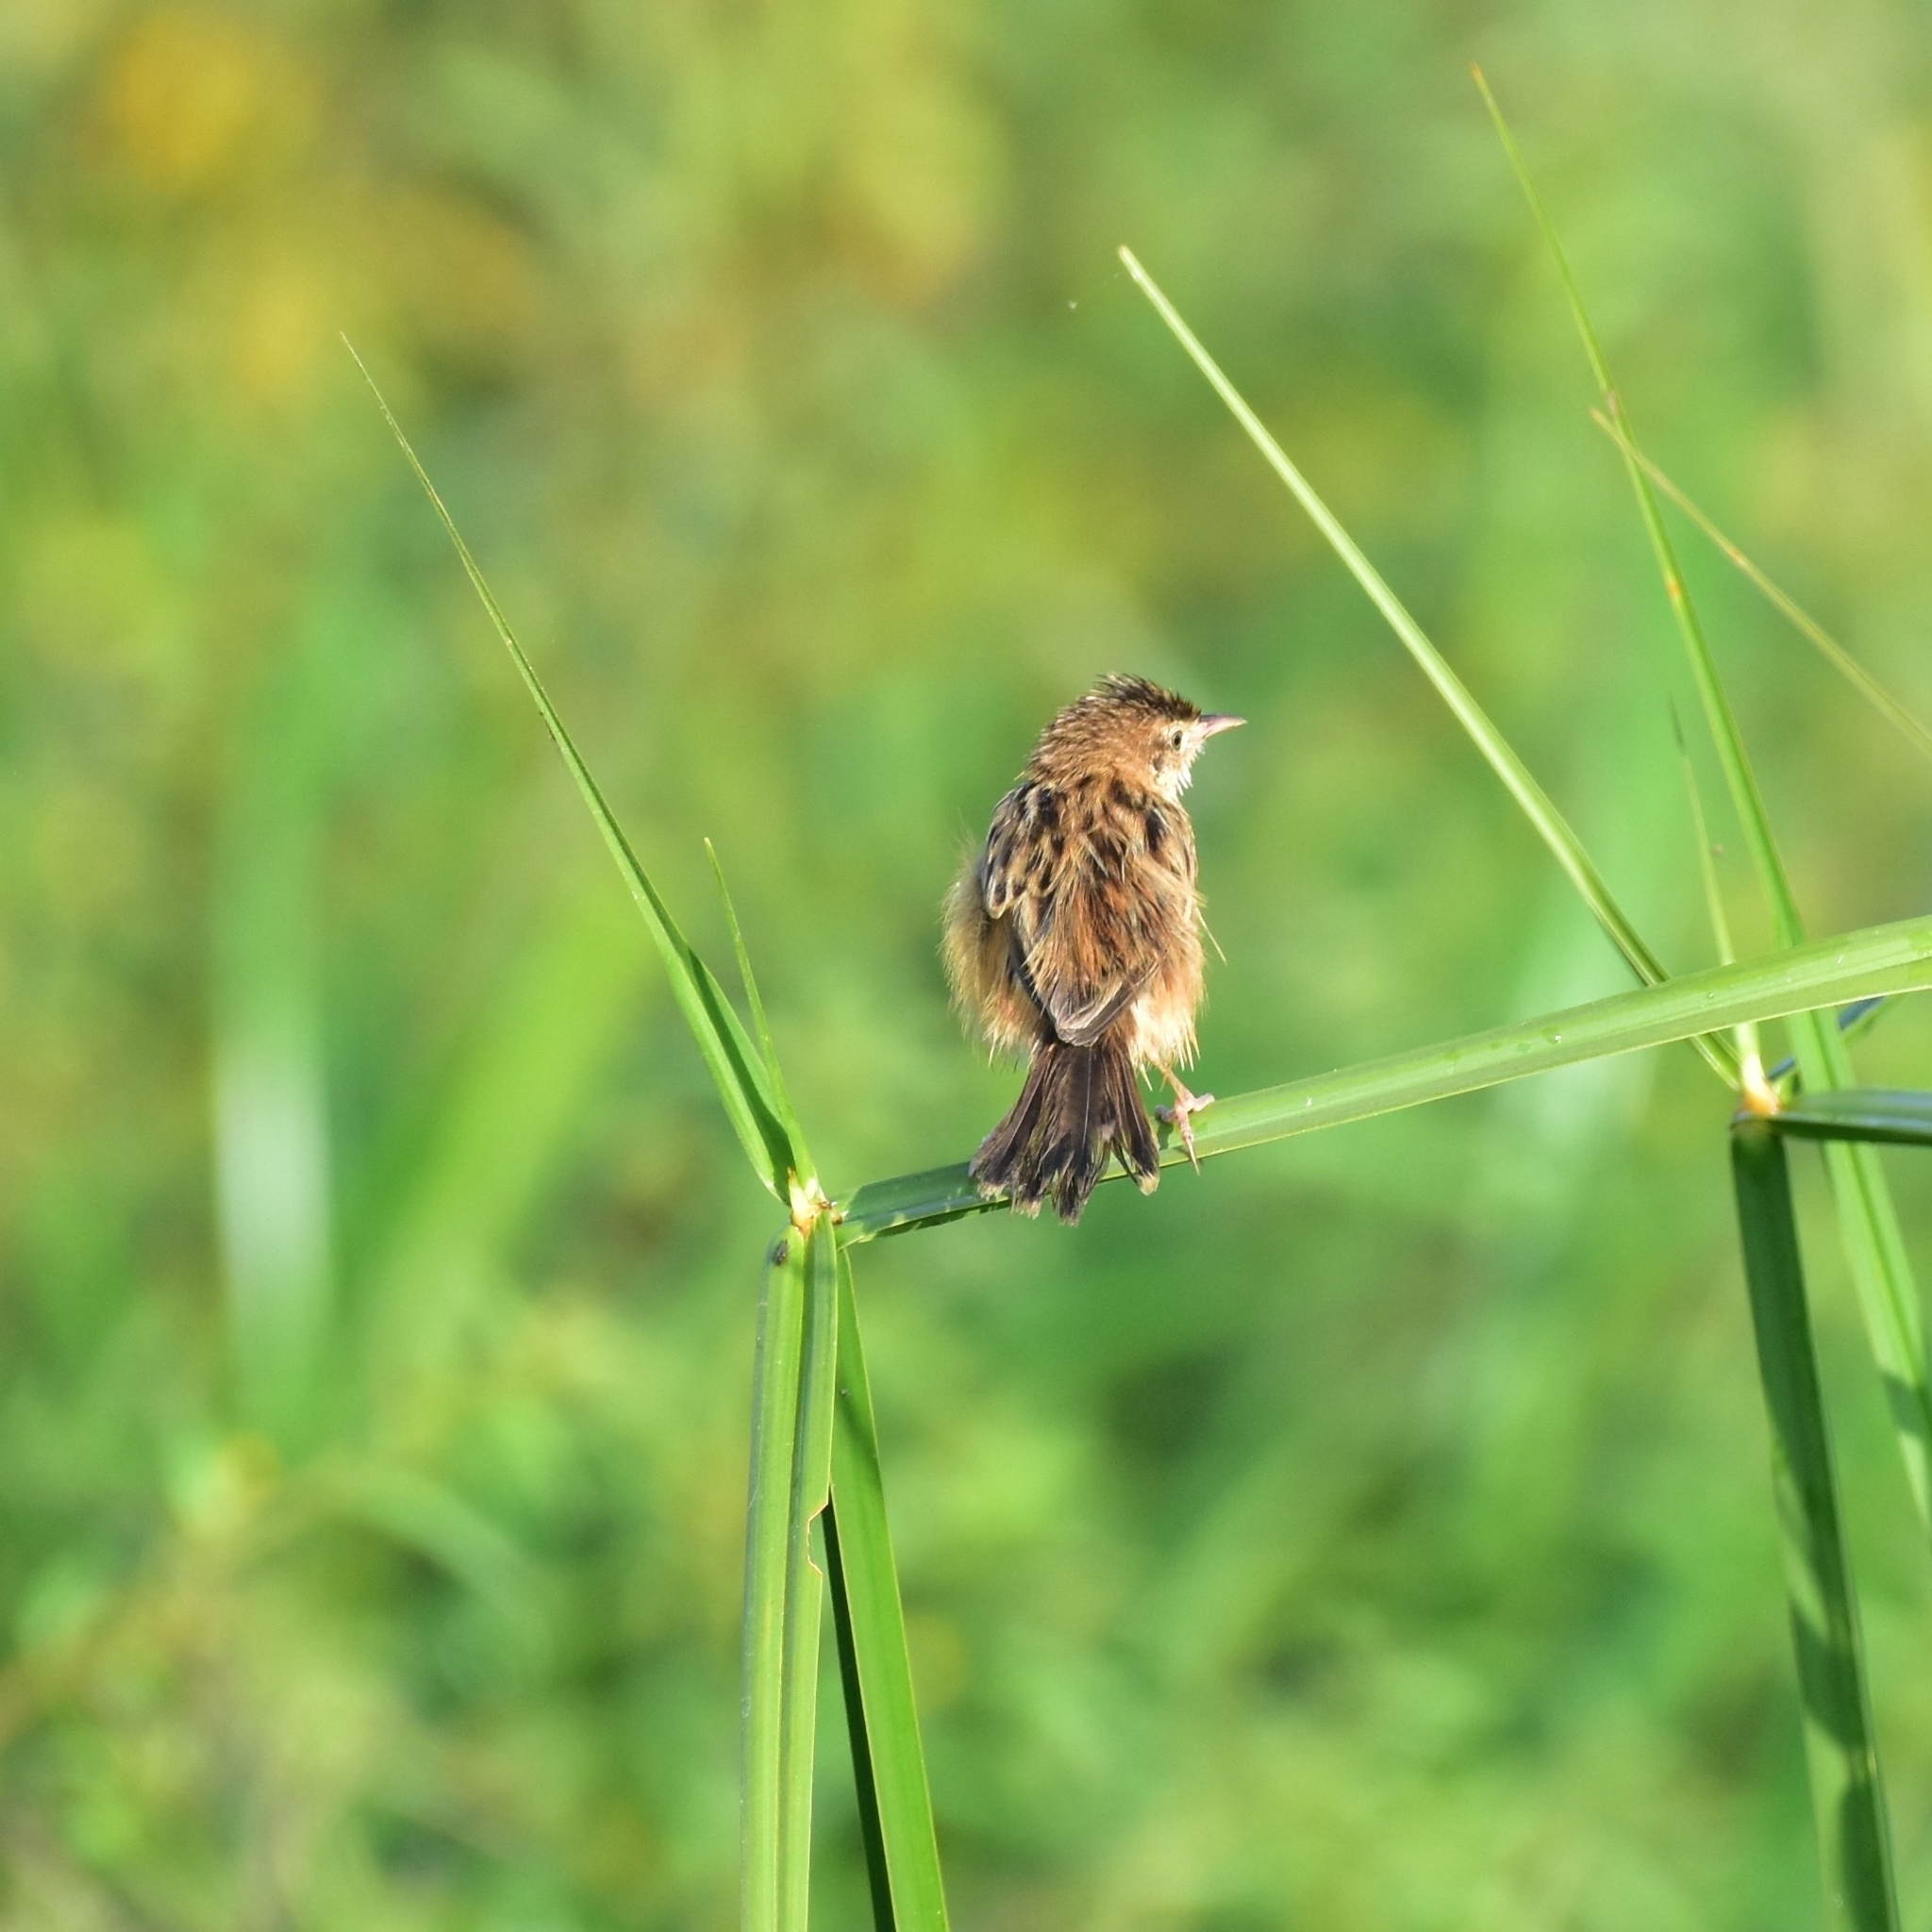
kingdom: Animalia
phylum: Chordata
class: Aves
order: Passeriformes
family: Cisticolidae
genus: Cisticola
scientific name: Cisticola juncidis
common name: Zitting cisticola
